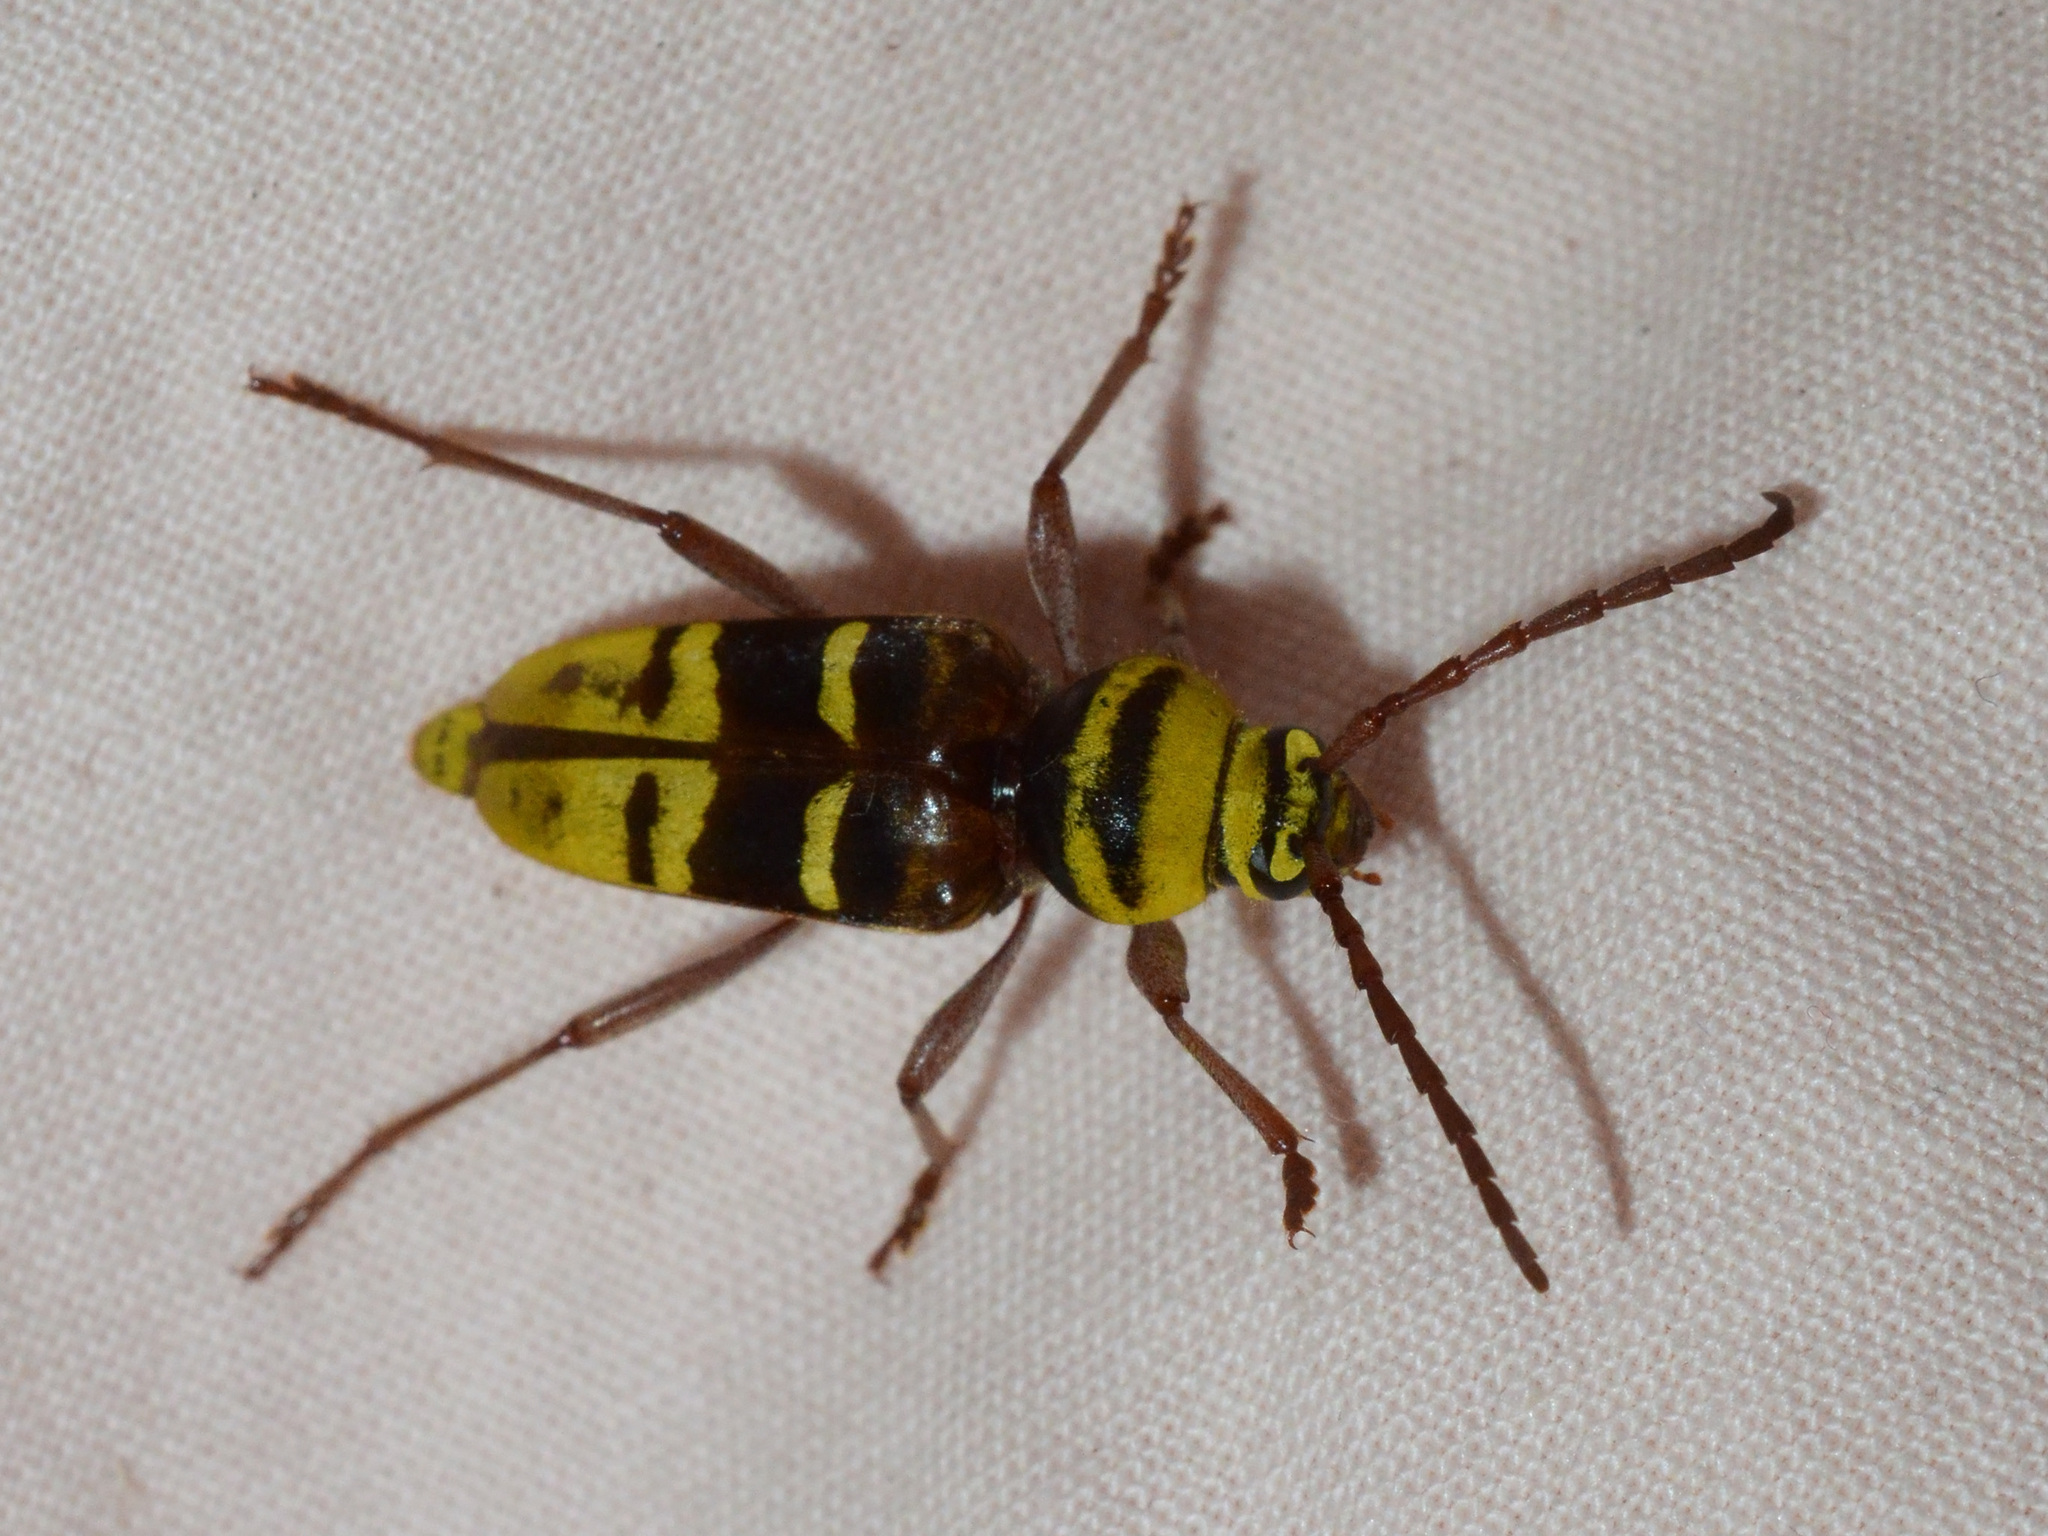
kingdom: Animalia
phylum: Arthropoda
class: Insecta
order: Coleoptera
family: Cerambycidae
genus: Plagionotus
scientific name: Plagionotus detritus
